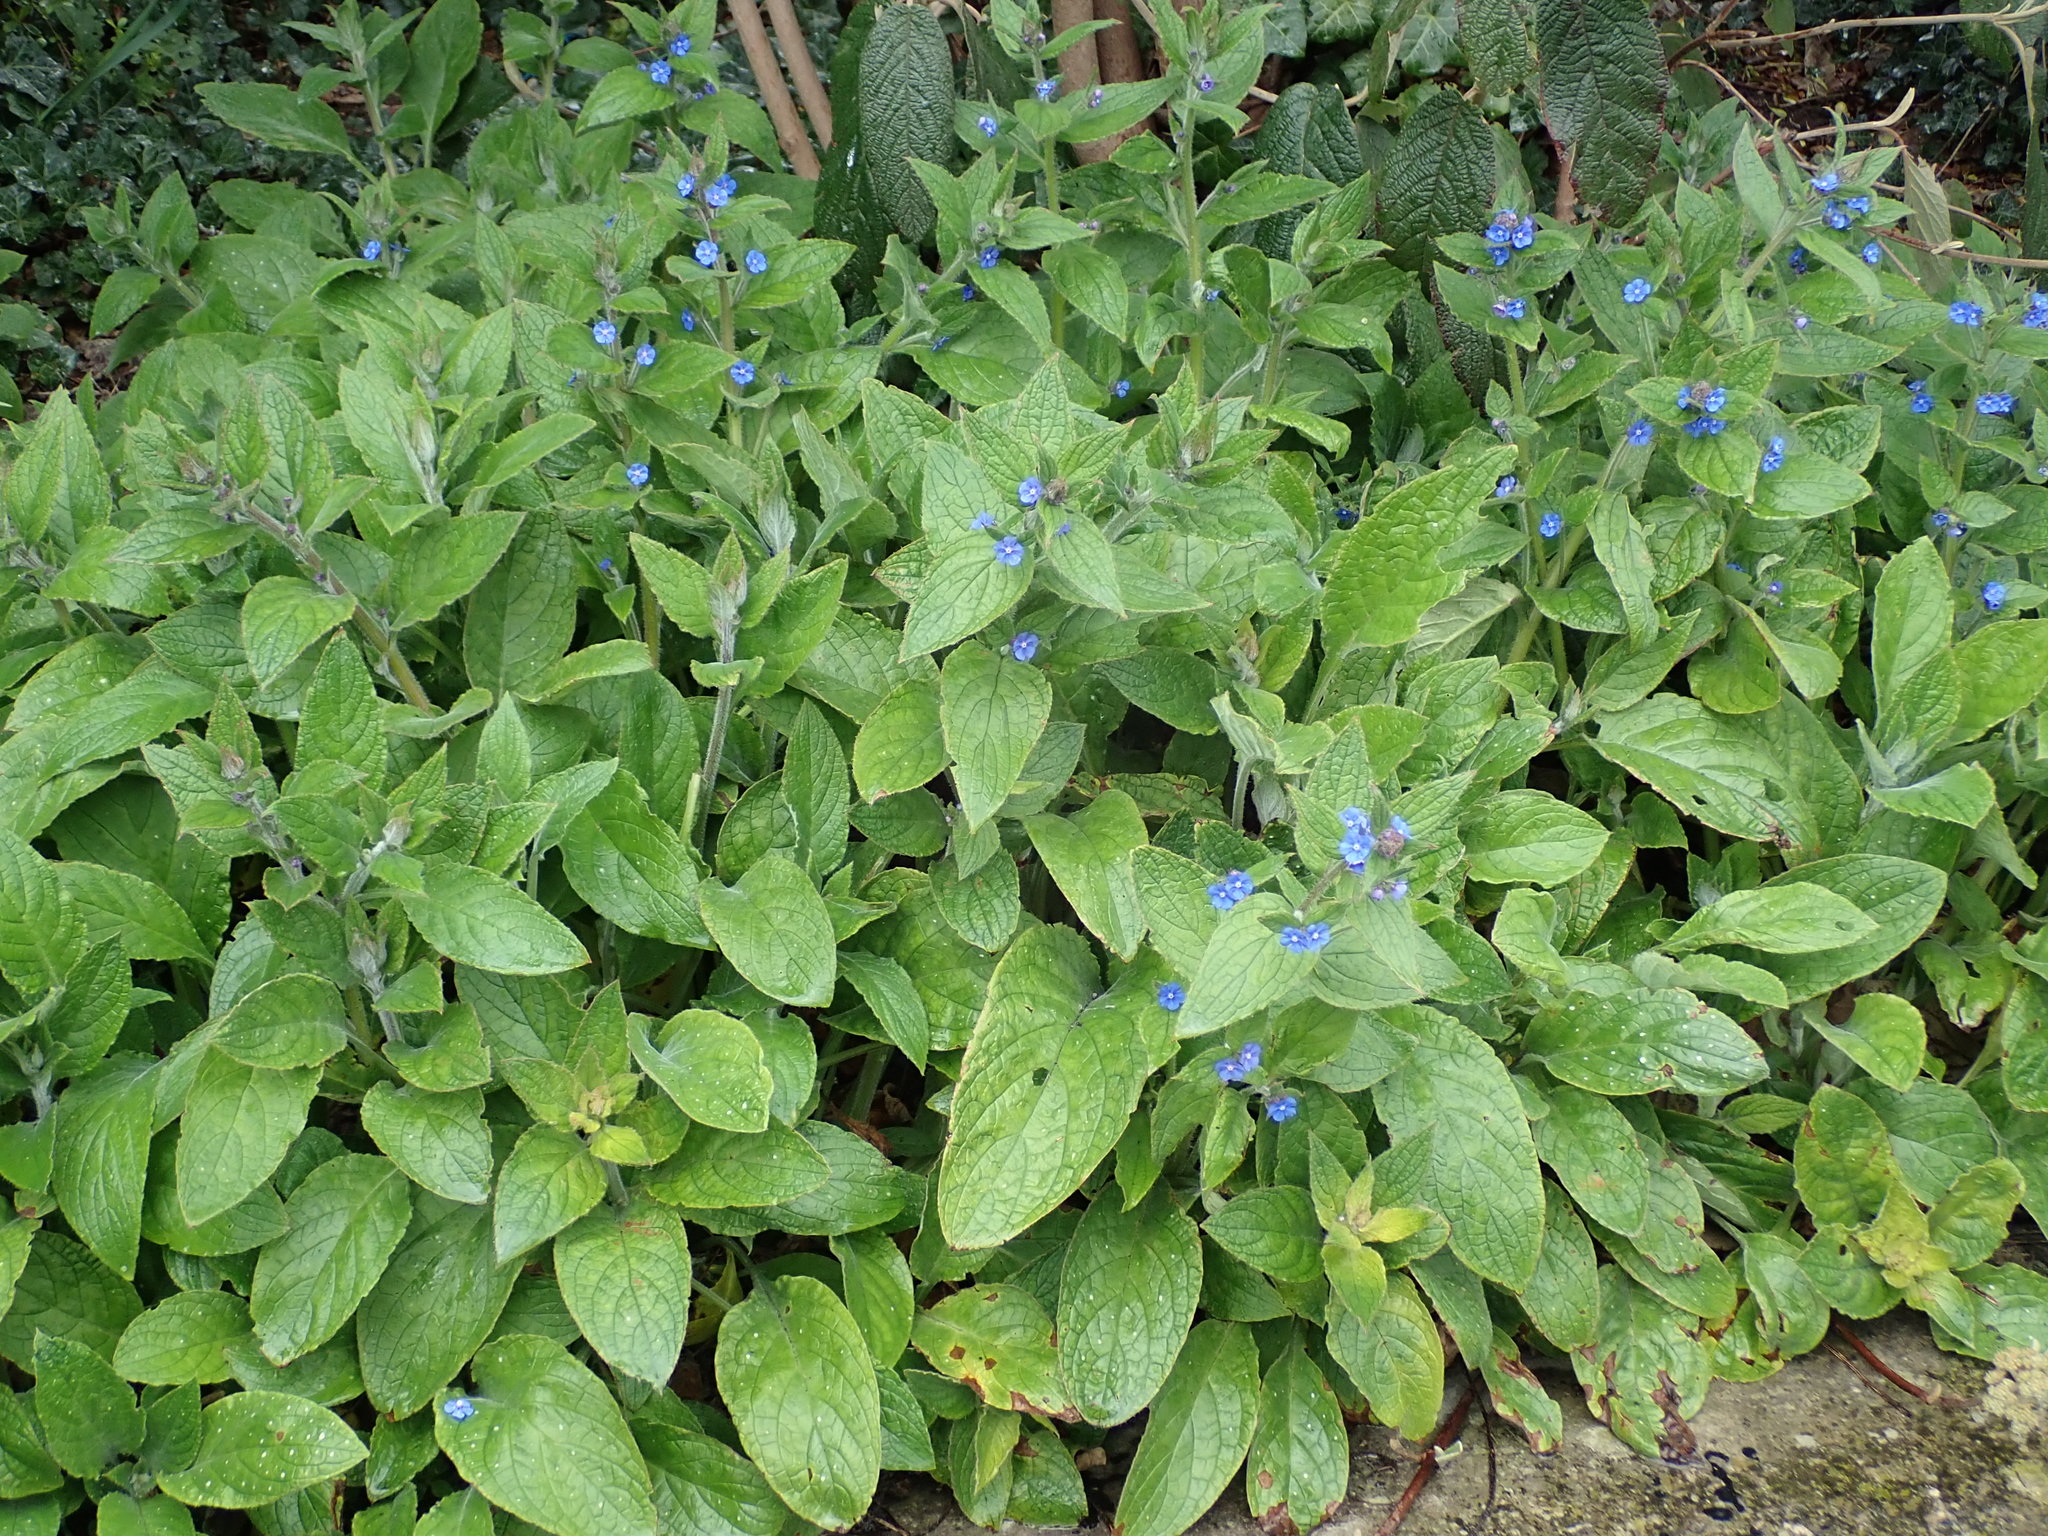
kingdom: Plantae
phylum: Tracheophyta
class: Magnoliopsida
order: Boraginales
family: Boraginaceae
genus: Pentaglottis
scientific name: Pentaglottis sempervirens
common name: Green alkanet
